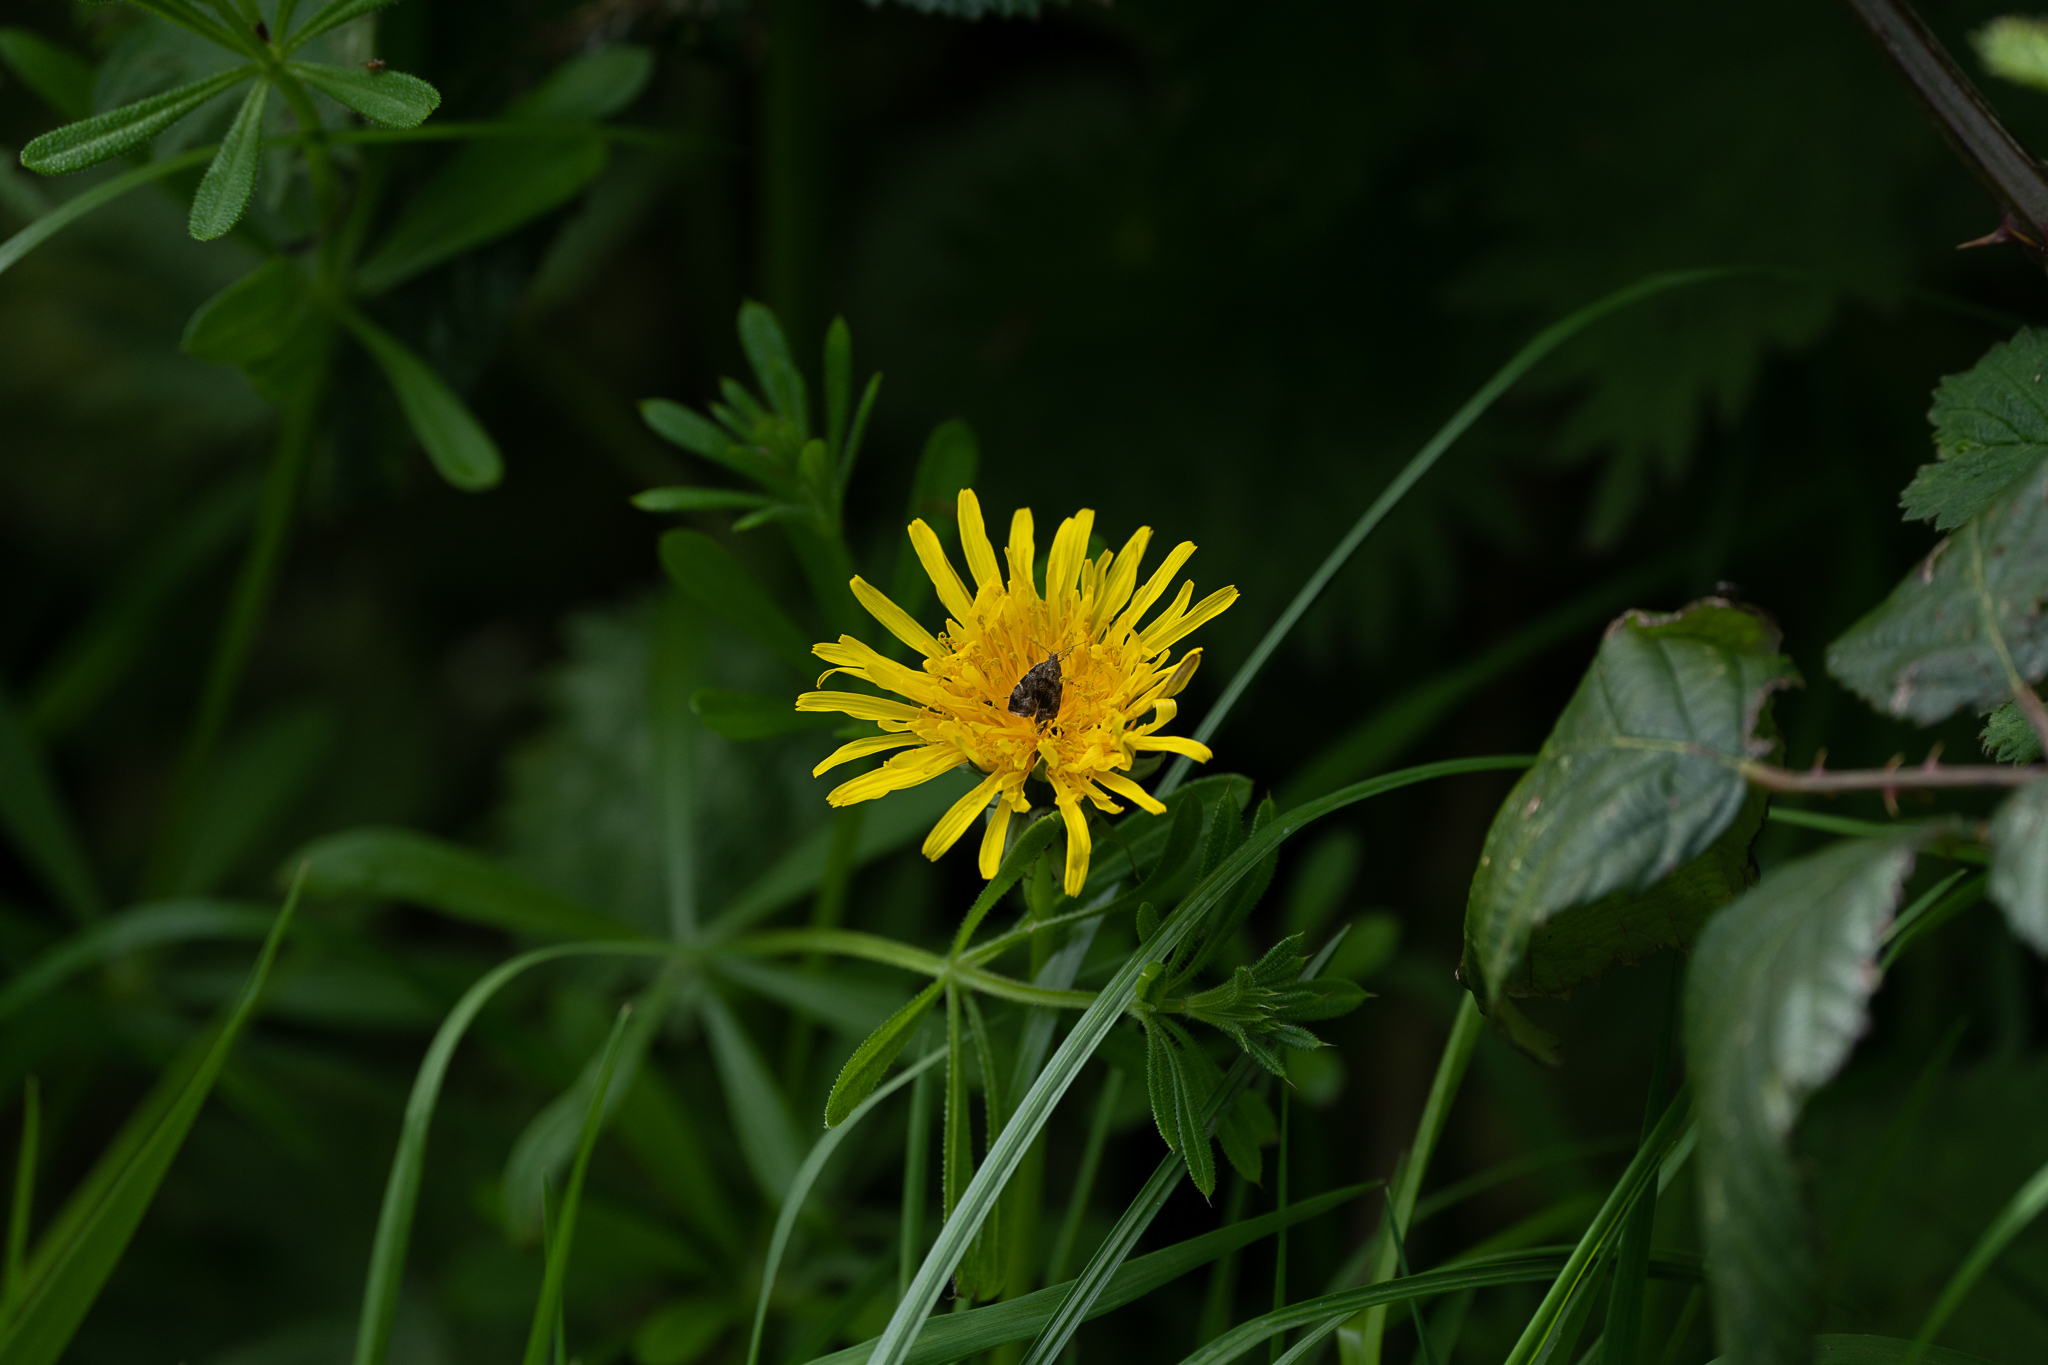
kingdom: Animalia
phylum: Arthropoda
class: Insecta
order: Lepidoptera
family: Choreutidae
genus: Anthophila
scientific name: Anthophila fabriciana
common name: Nettle-tap
